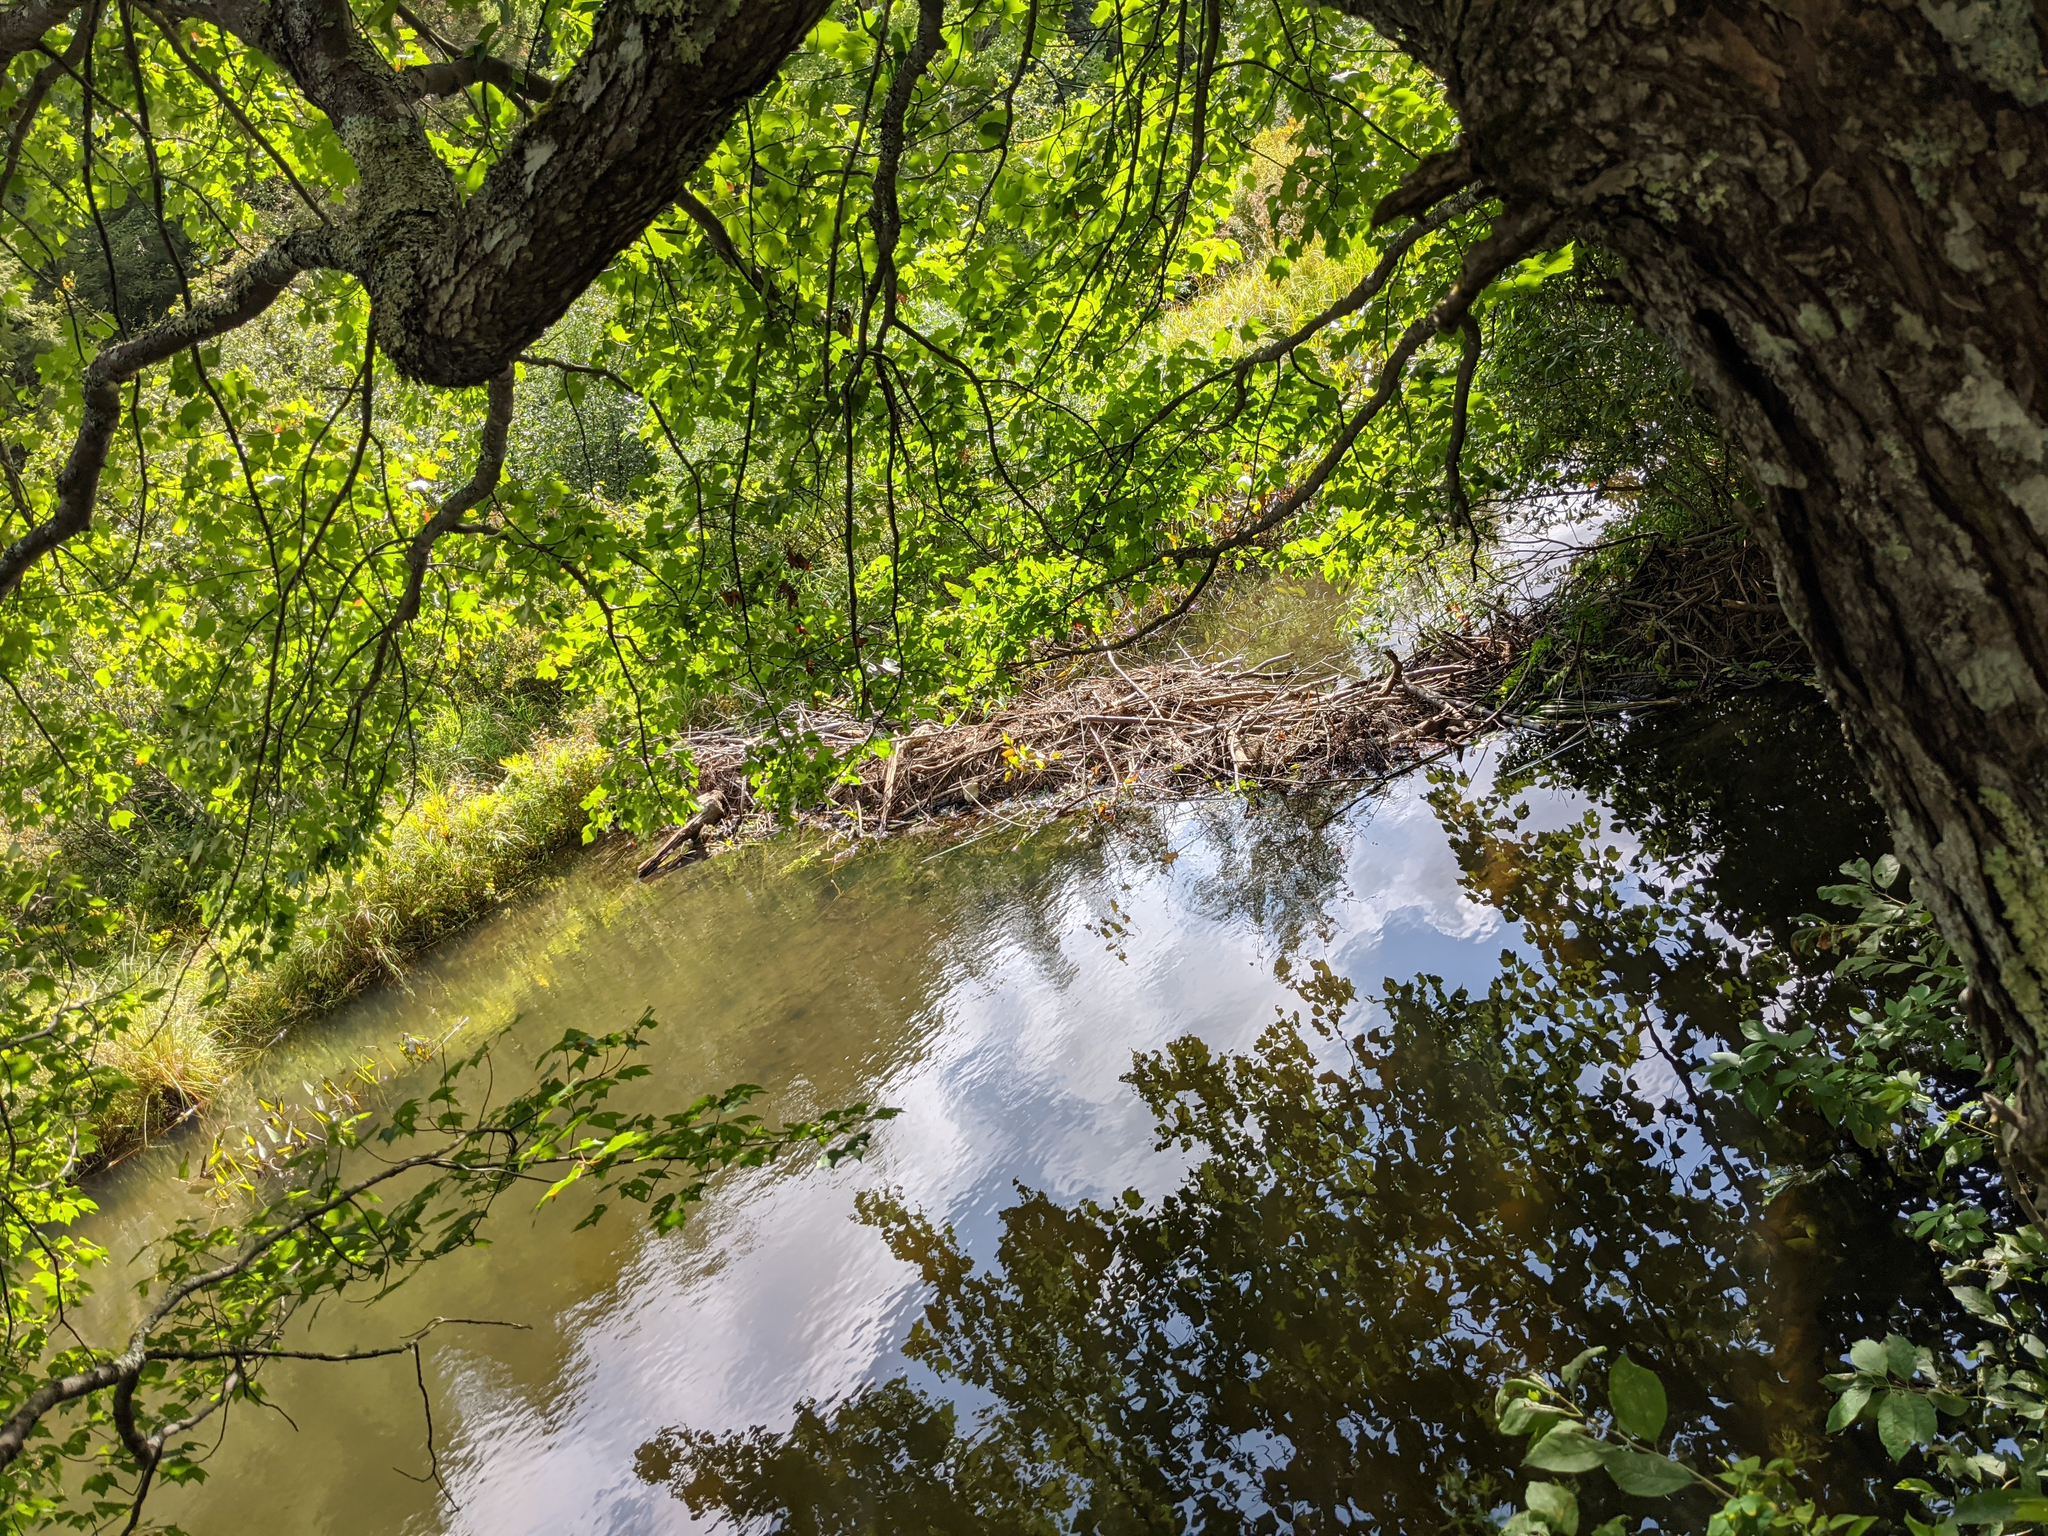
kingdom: Animalia
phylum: Chordata
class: Mammalia
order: Rodentia
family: Castoridae
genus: Castor
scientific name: Castor canadensis
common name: American beaver
